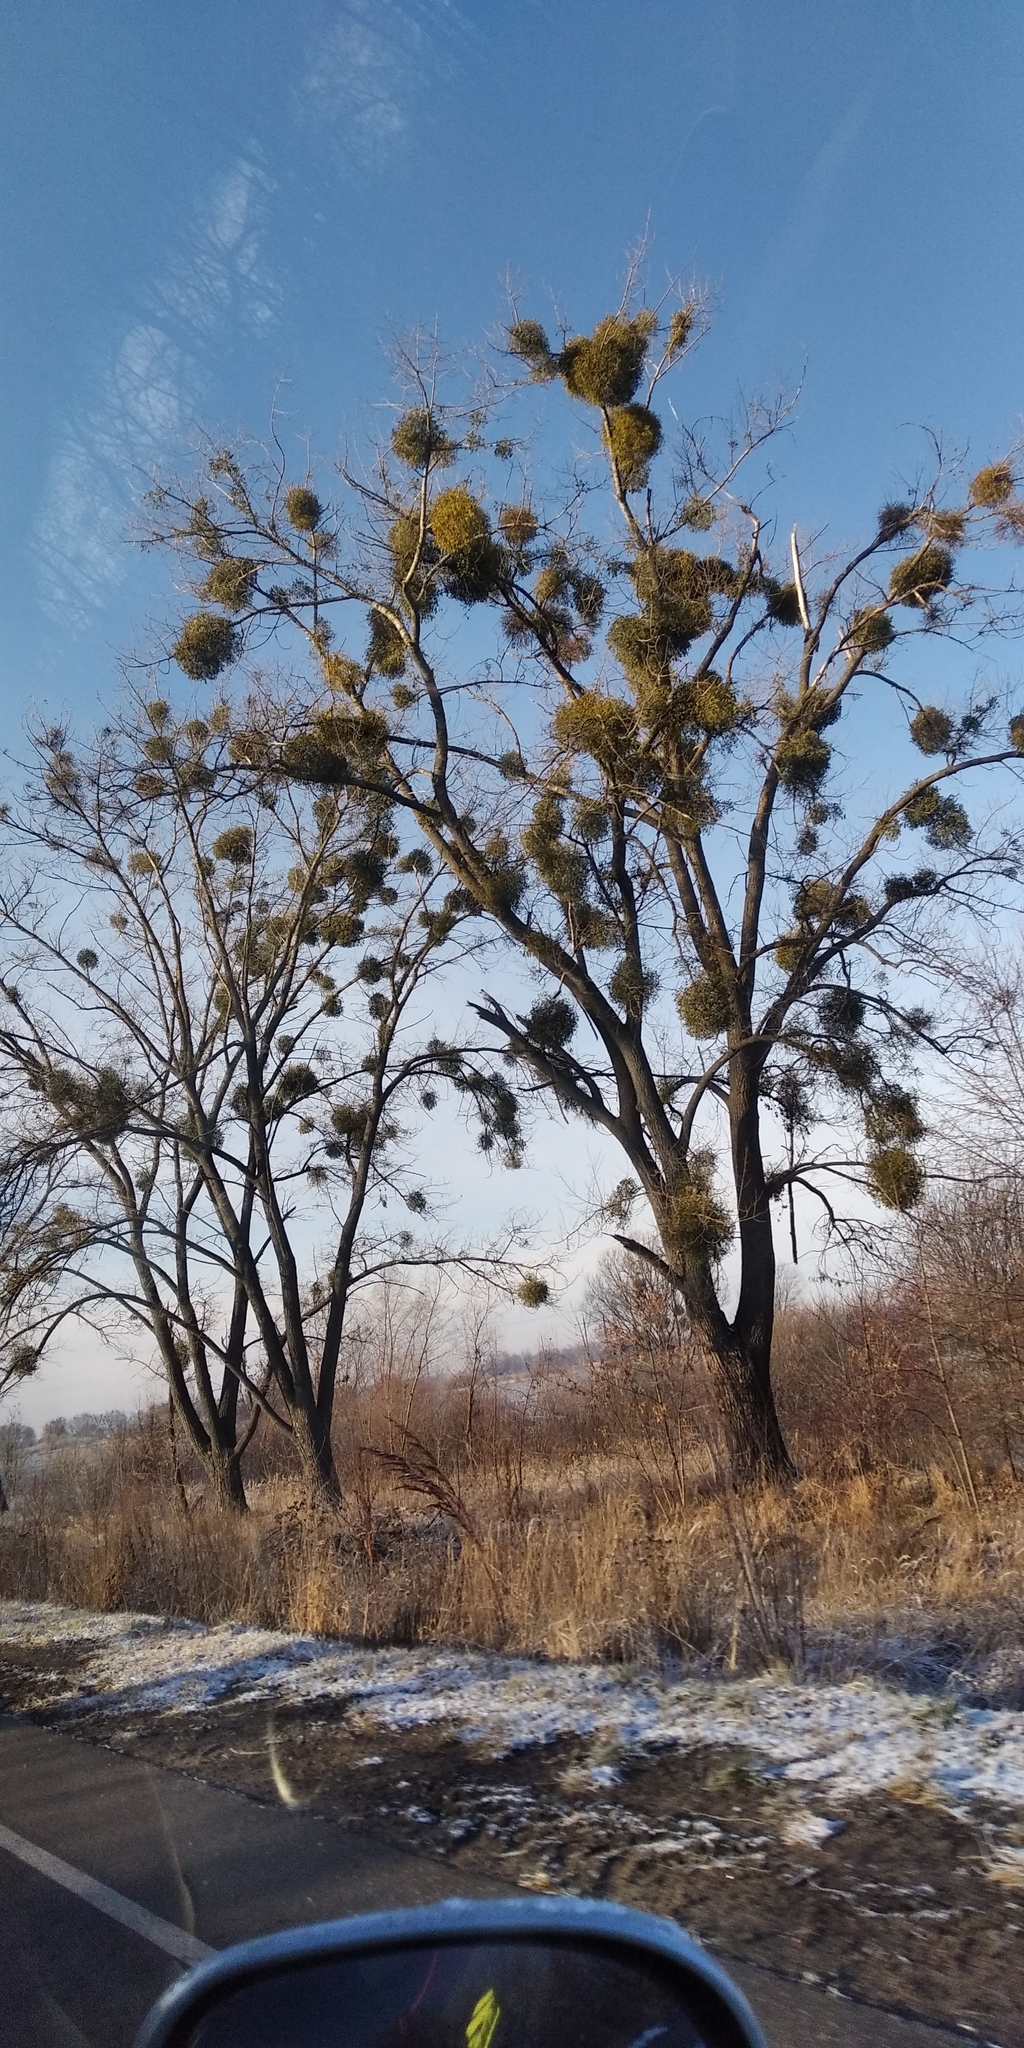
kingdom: Plantae
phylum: Tracheophyta
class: Magnoliopsida
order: Santalales
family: Viscaceae
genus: Viscum
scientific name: Viscum album
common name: Mistletoe
